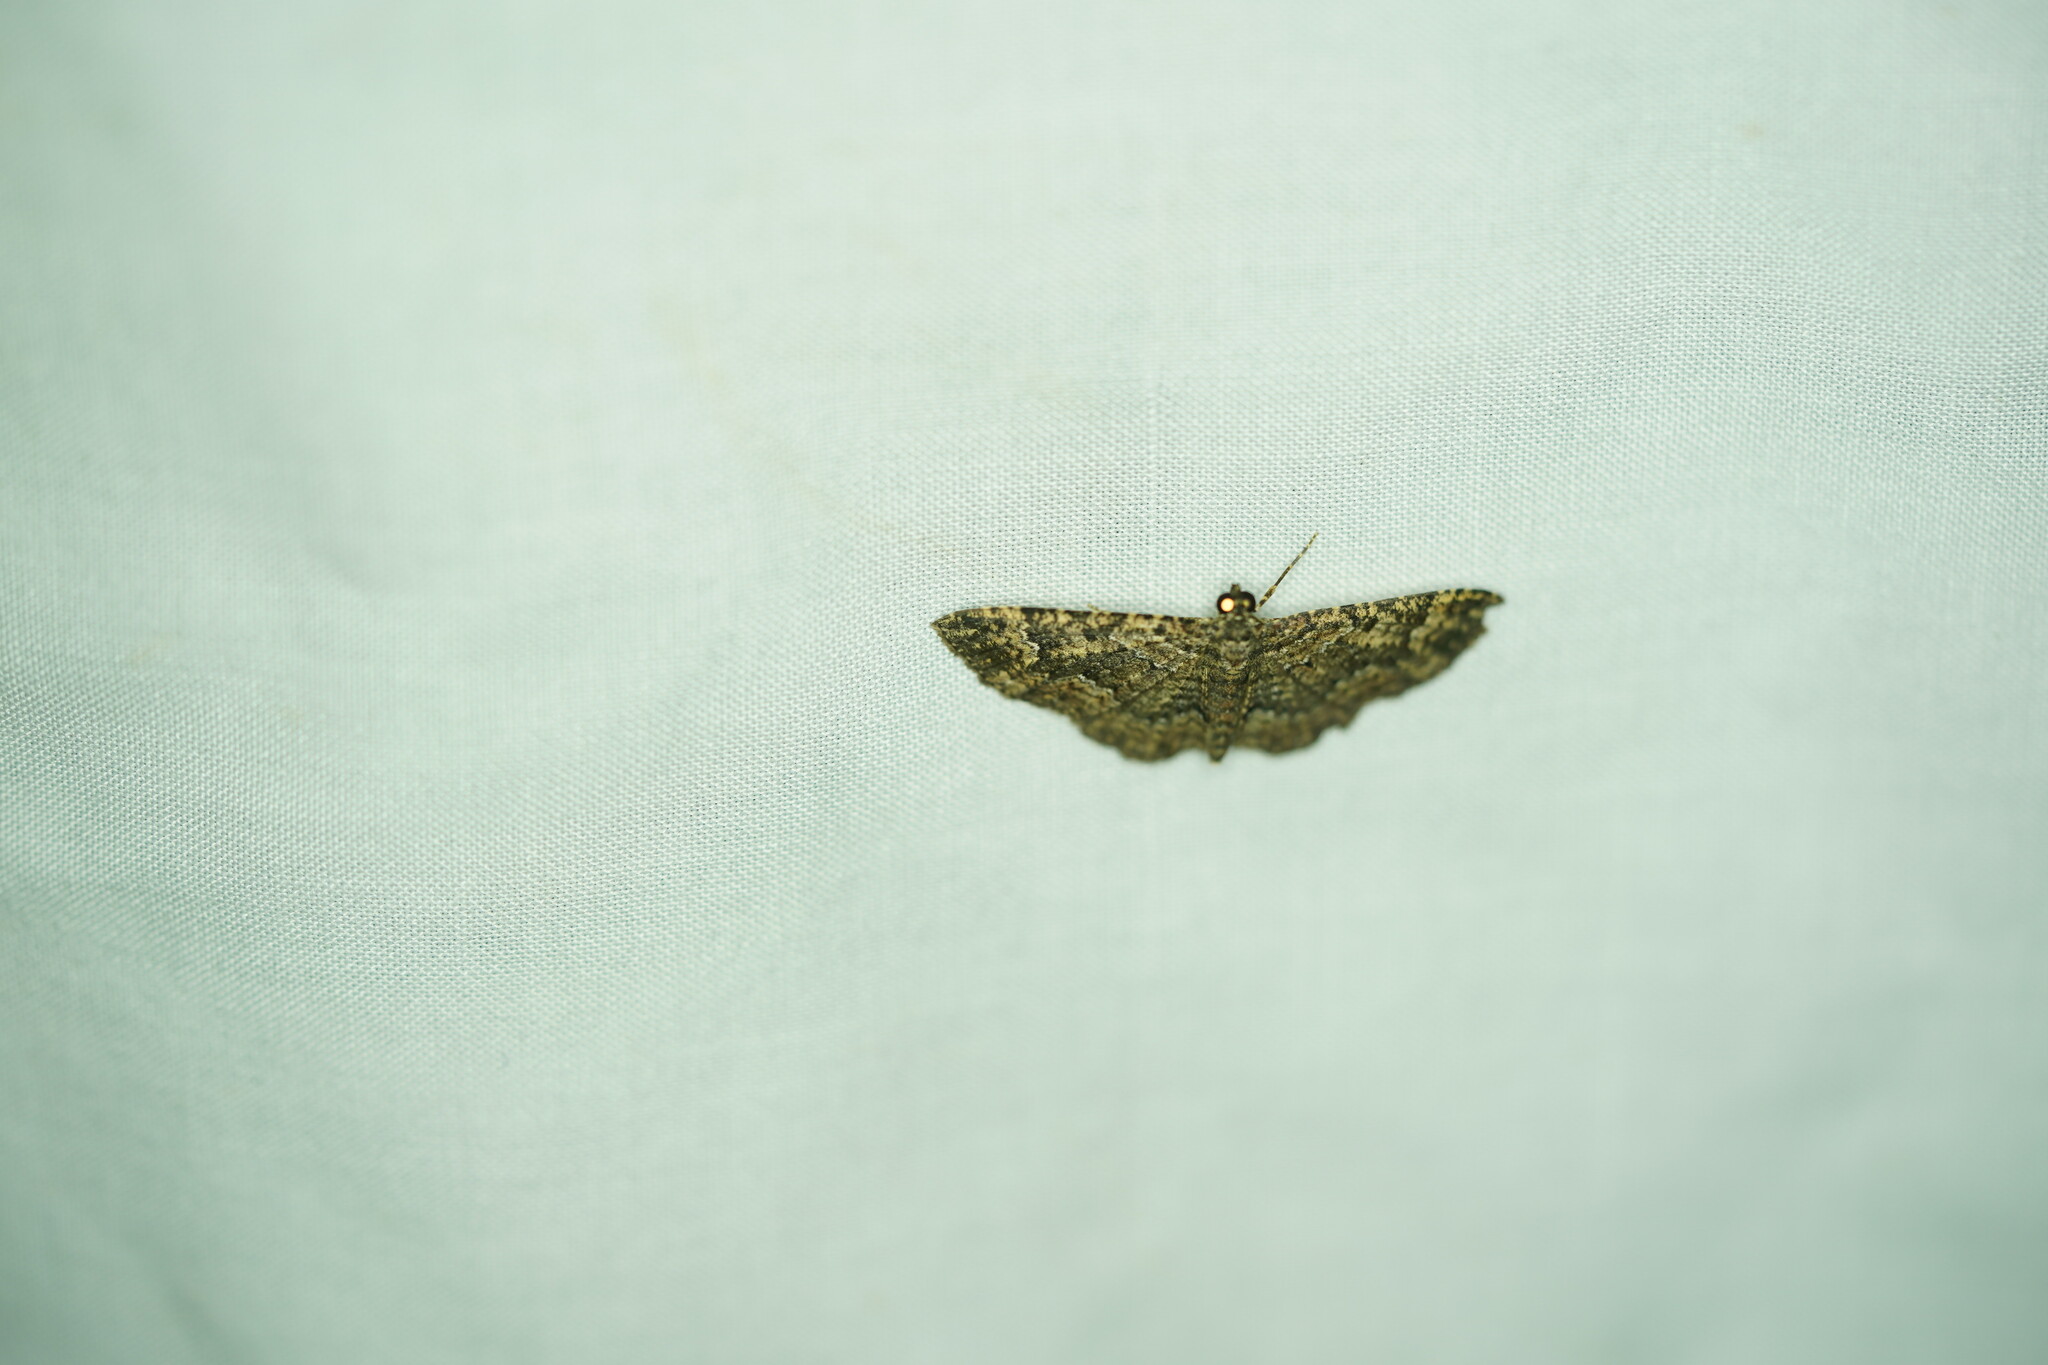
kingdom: Animalia
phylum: Arthropoda
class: Insecta
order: Lepidoptera
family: Geometridae
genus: Disclisioprocta
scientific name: Disclisioprocta stellata
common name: Somber carpet
